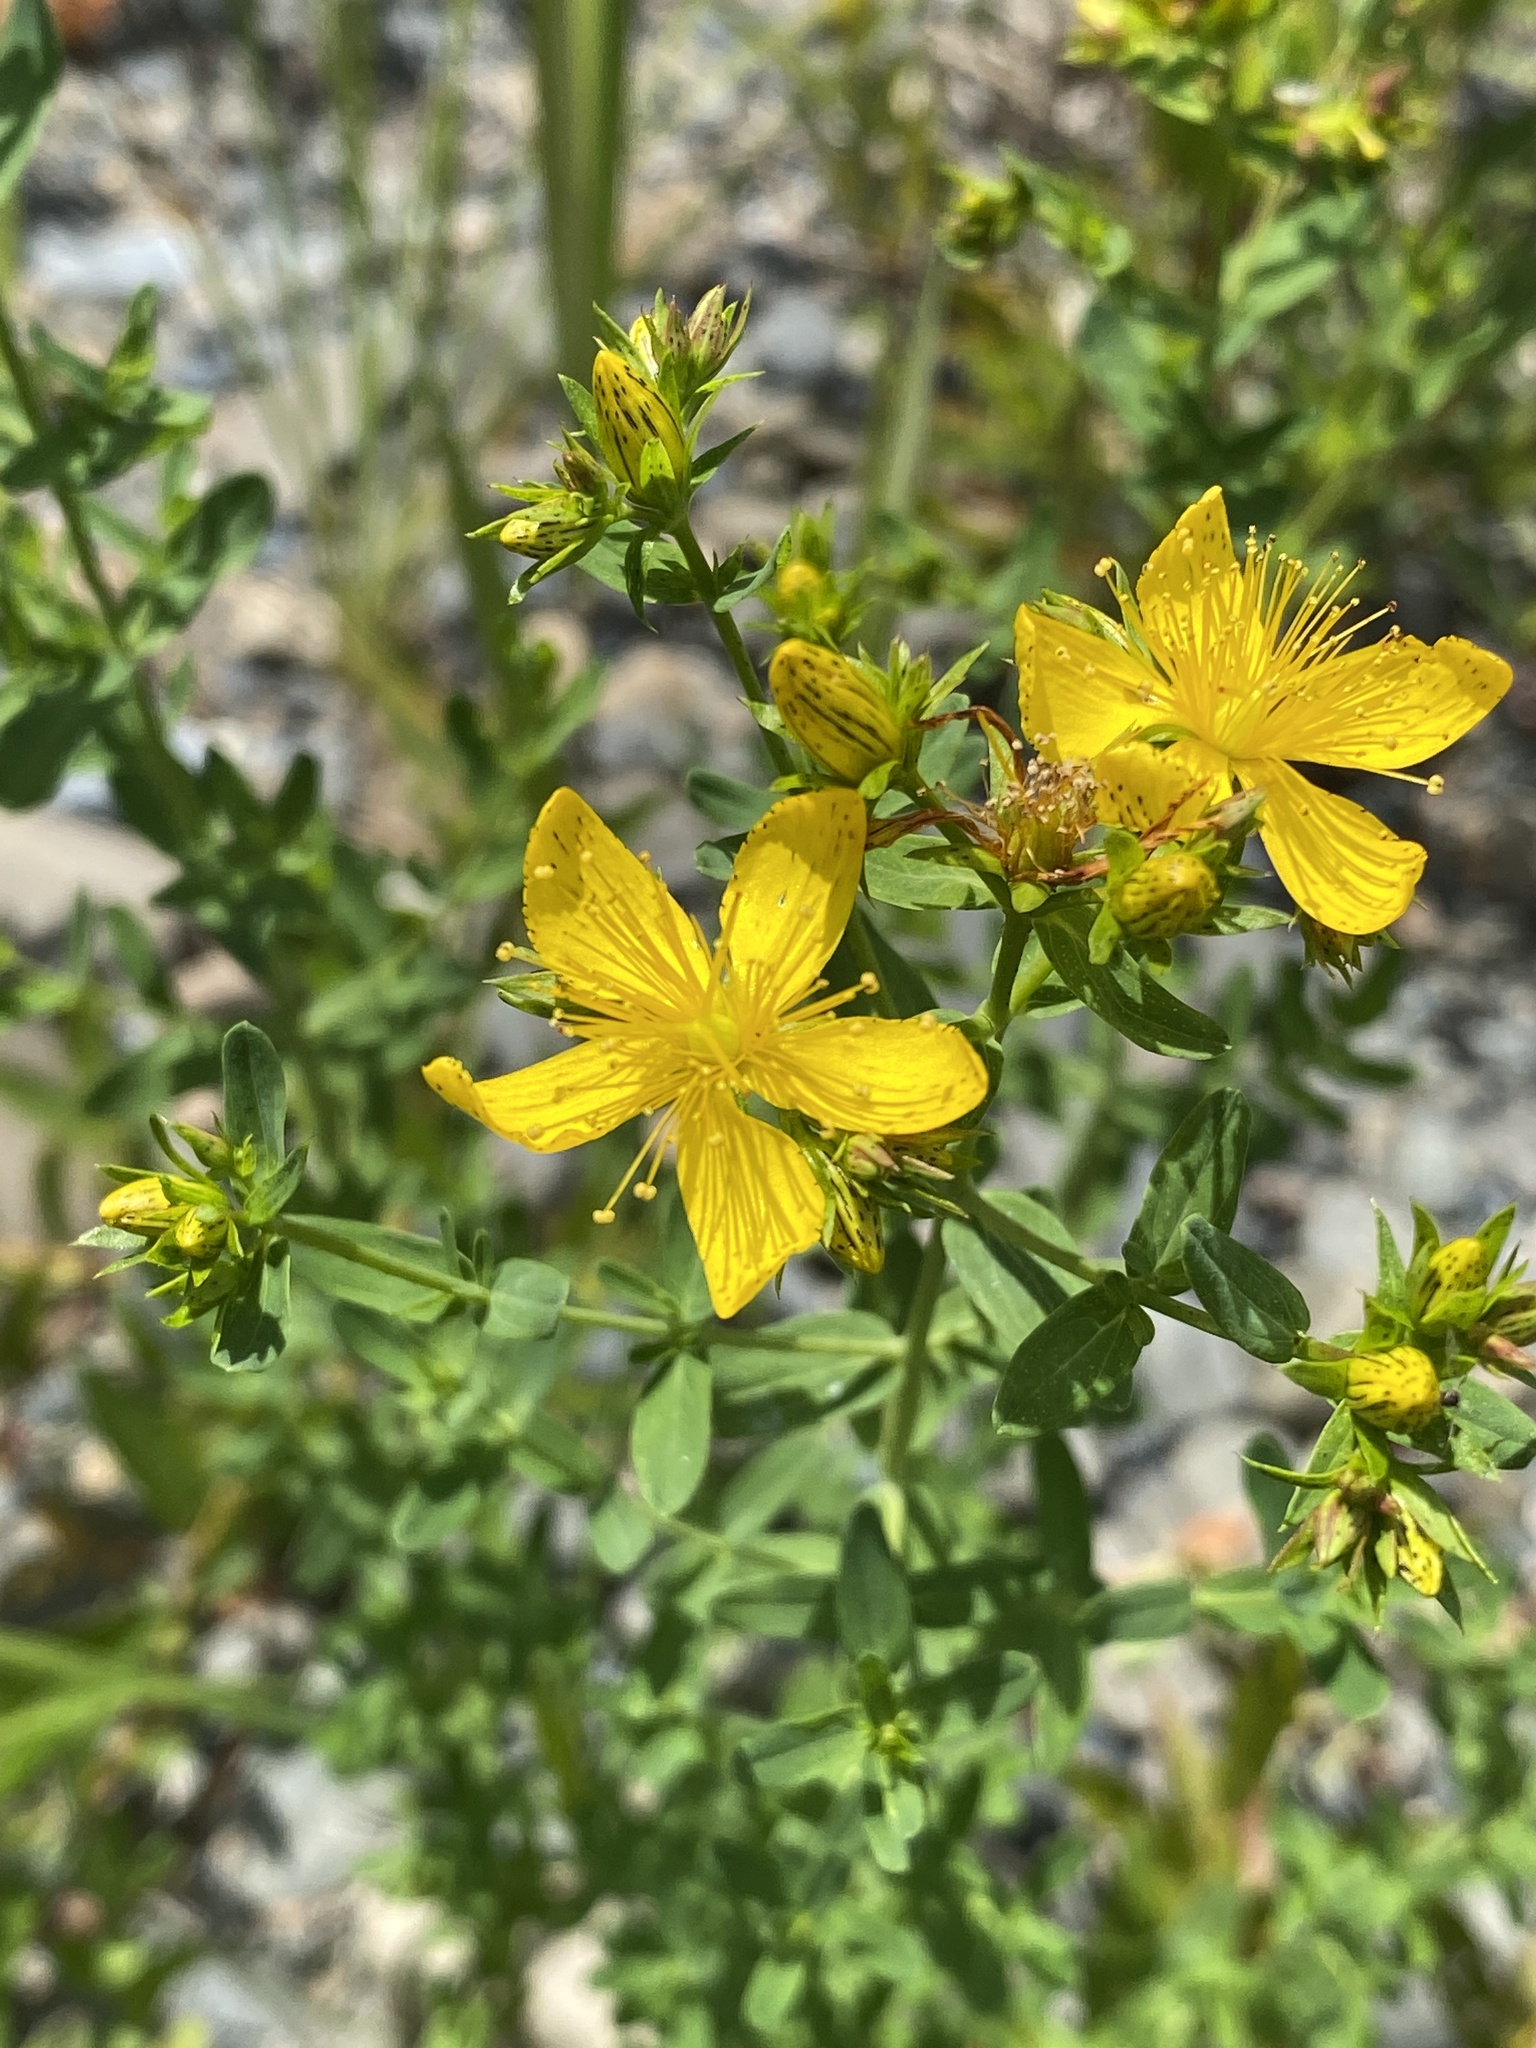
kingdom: Plantae
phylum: Tracheophyta
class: Magnoliopsida
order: Malpighiales
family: Hypericaceae
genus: Hypericum
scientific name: Hypericum perforatum
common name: Common st. johnswort
